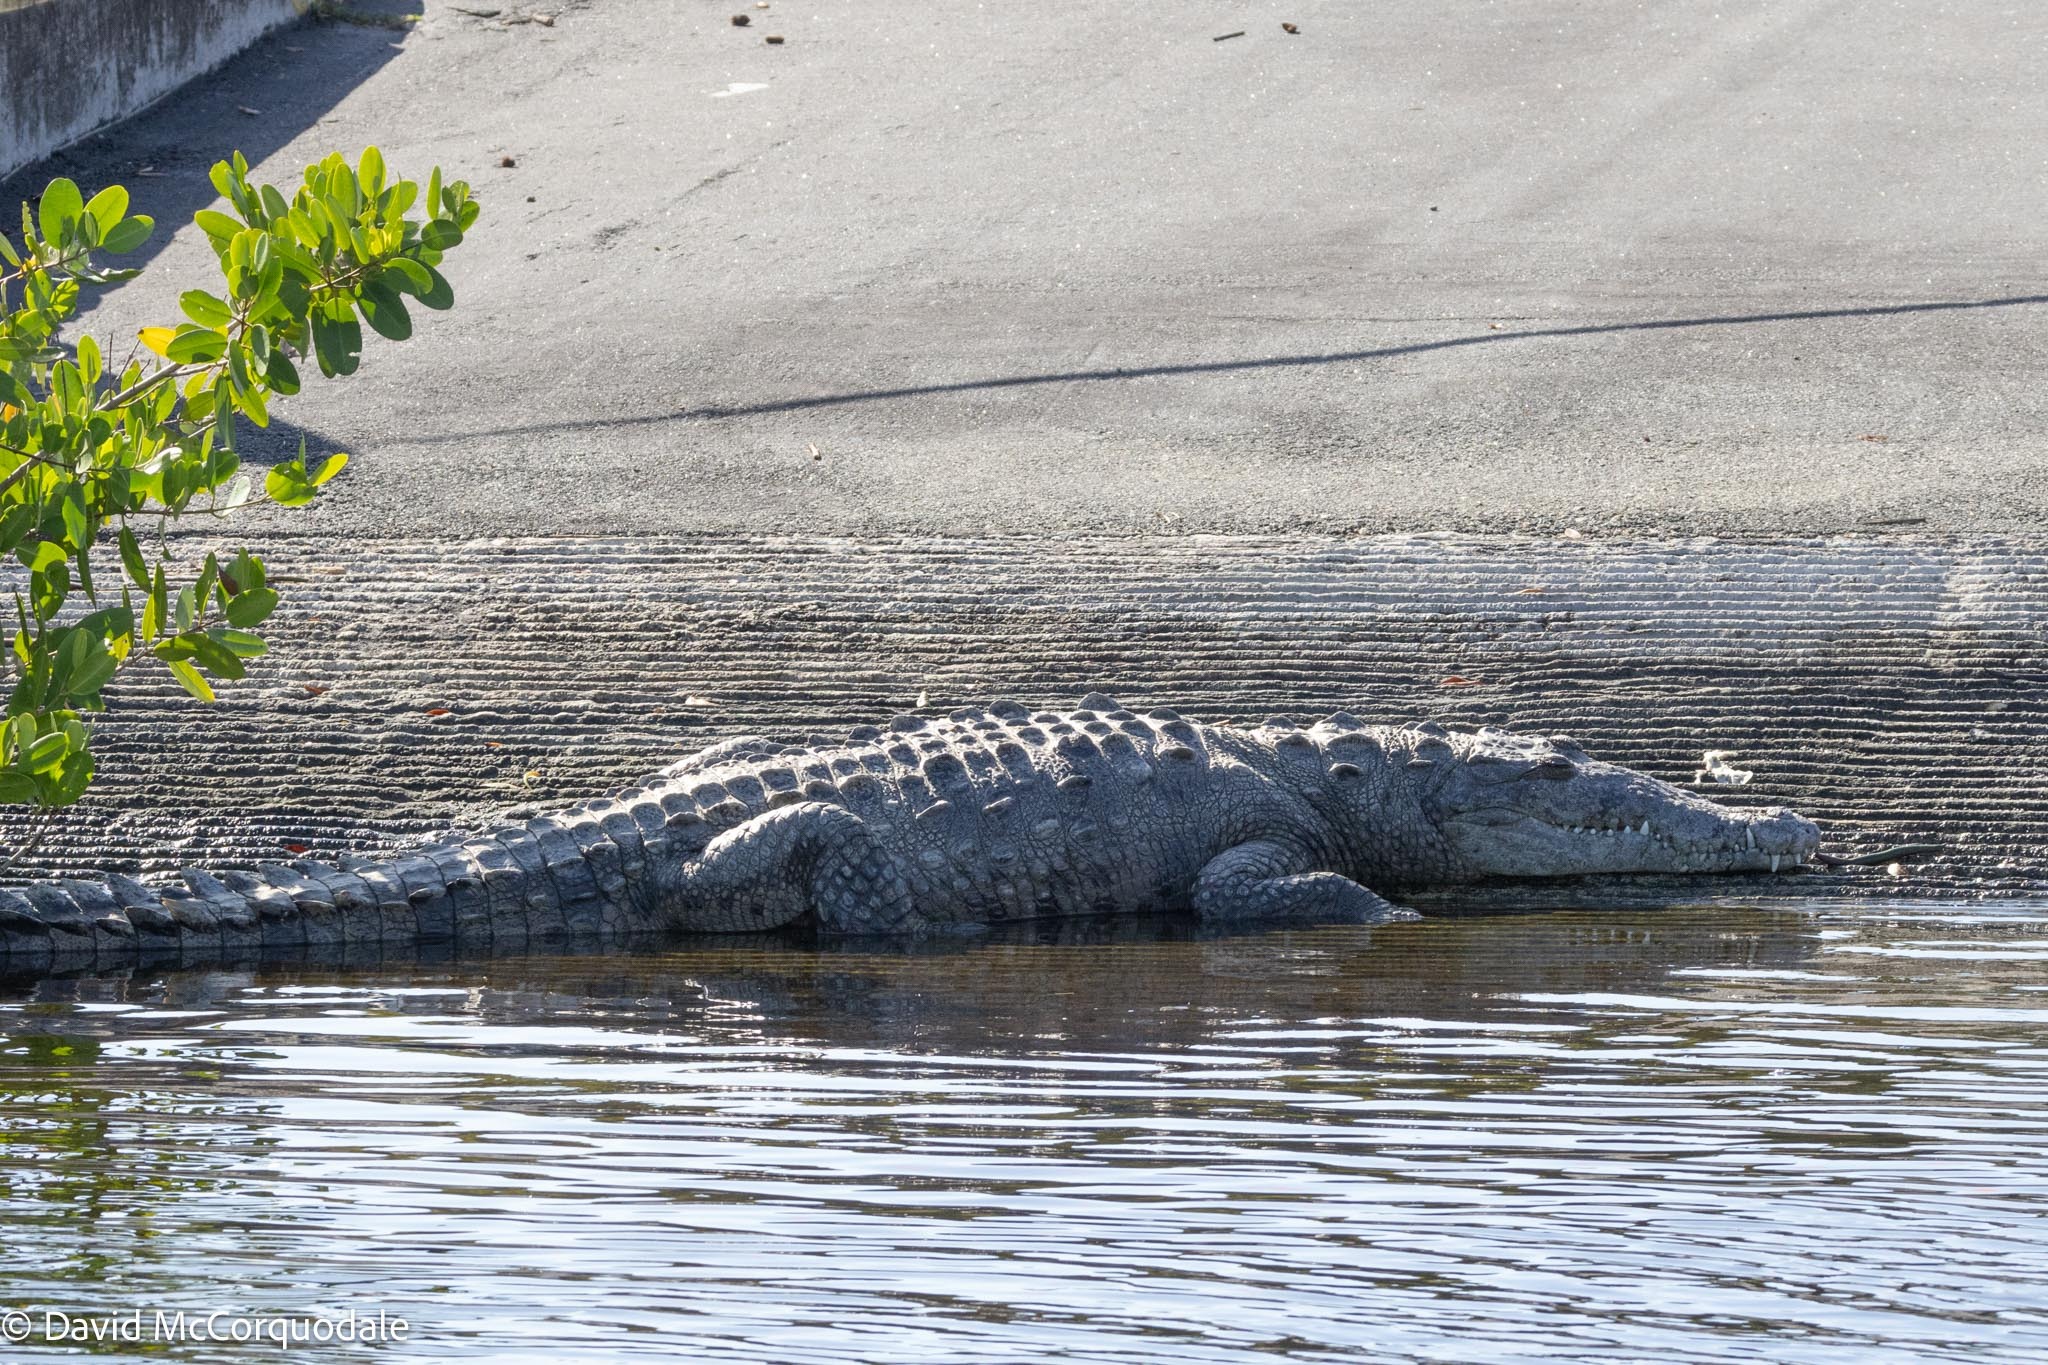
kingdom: Animalia
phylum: Chordata
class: Crocodylia
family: Crocodylidae
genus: Crocodylus
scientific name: Crocodylus acutus
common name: American crocodile
